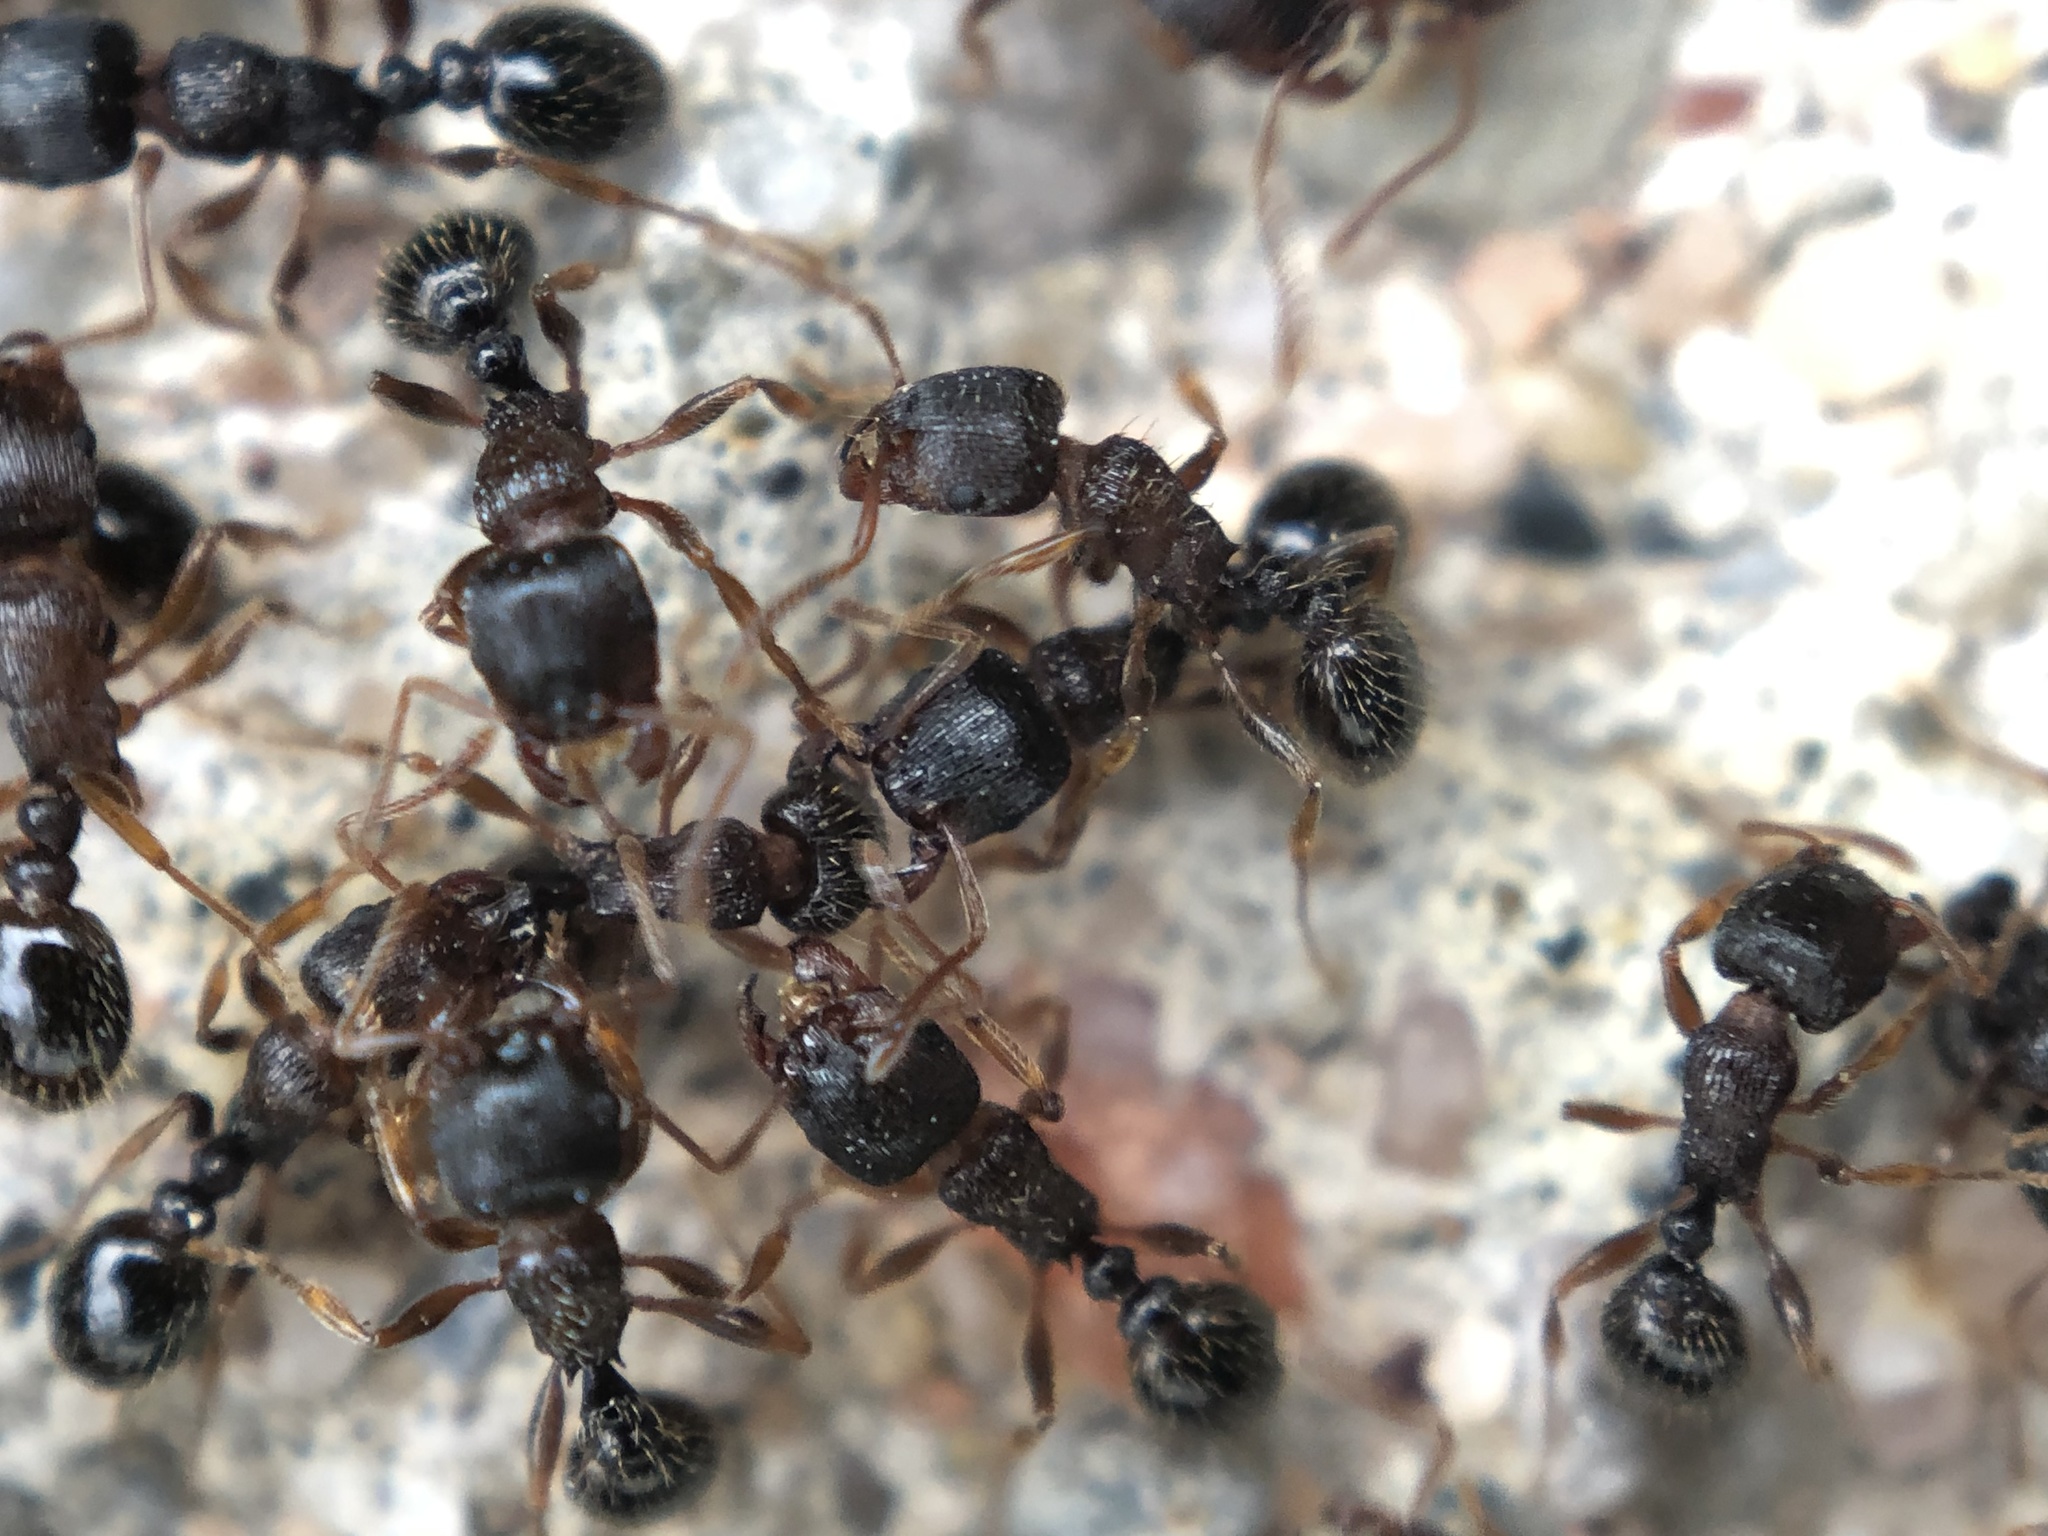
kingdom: Animalia
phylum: Arthropoda
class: Insecta
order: Hymenoptera
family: Formicidae
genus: Tetramorium
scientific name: Tetramorium immigrans
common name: Pavement ant
